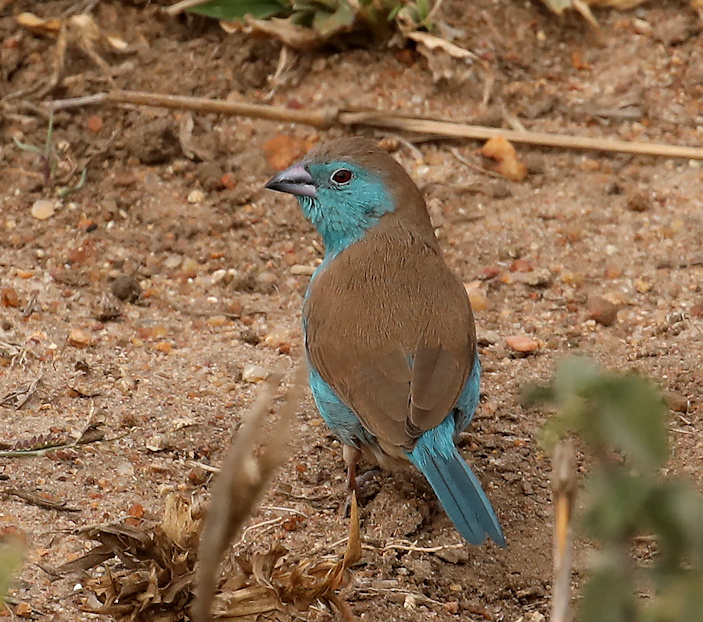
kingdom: Animalia
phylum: Chordata
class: Aves
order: Passeriformes
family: Estrildidae
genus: Uraeginthus
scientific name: Uraeginthus angolensis
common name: Blue waxbill
